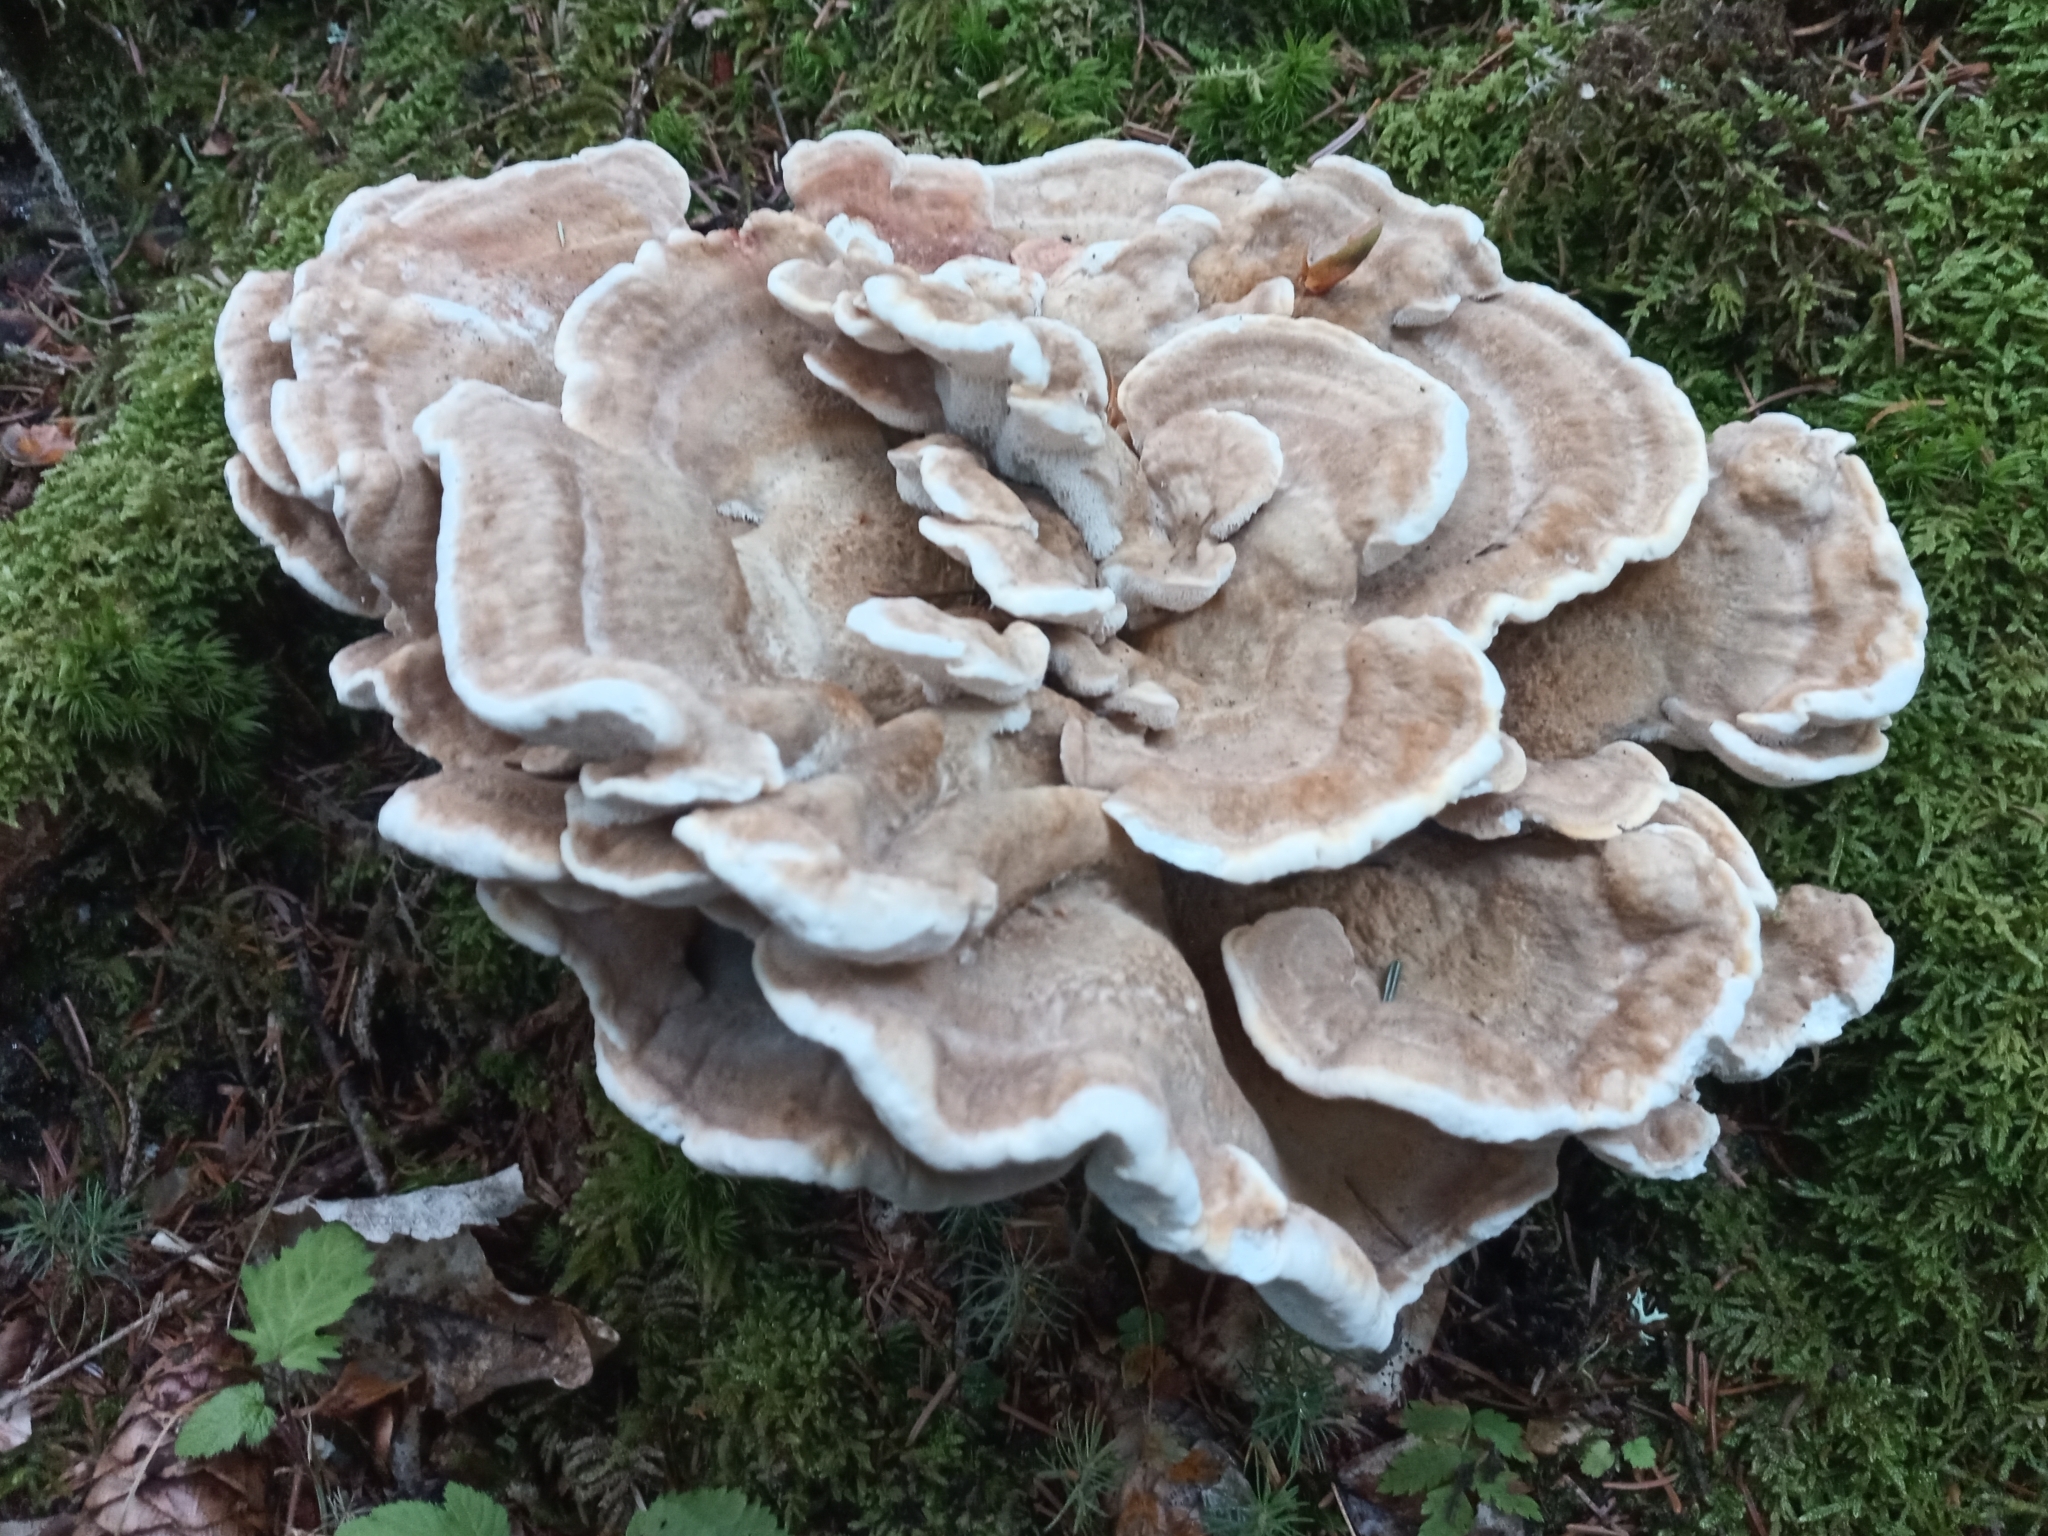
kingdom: Fungi
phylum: Basidiomycota
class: Agaricomycetes
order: Polyporales
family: Laetiporaceae
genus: Laetiporus
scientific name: Laetiporus sulphureus
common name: Chicken of the woods
